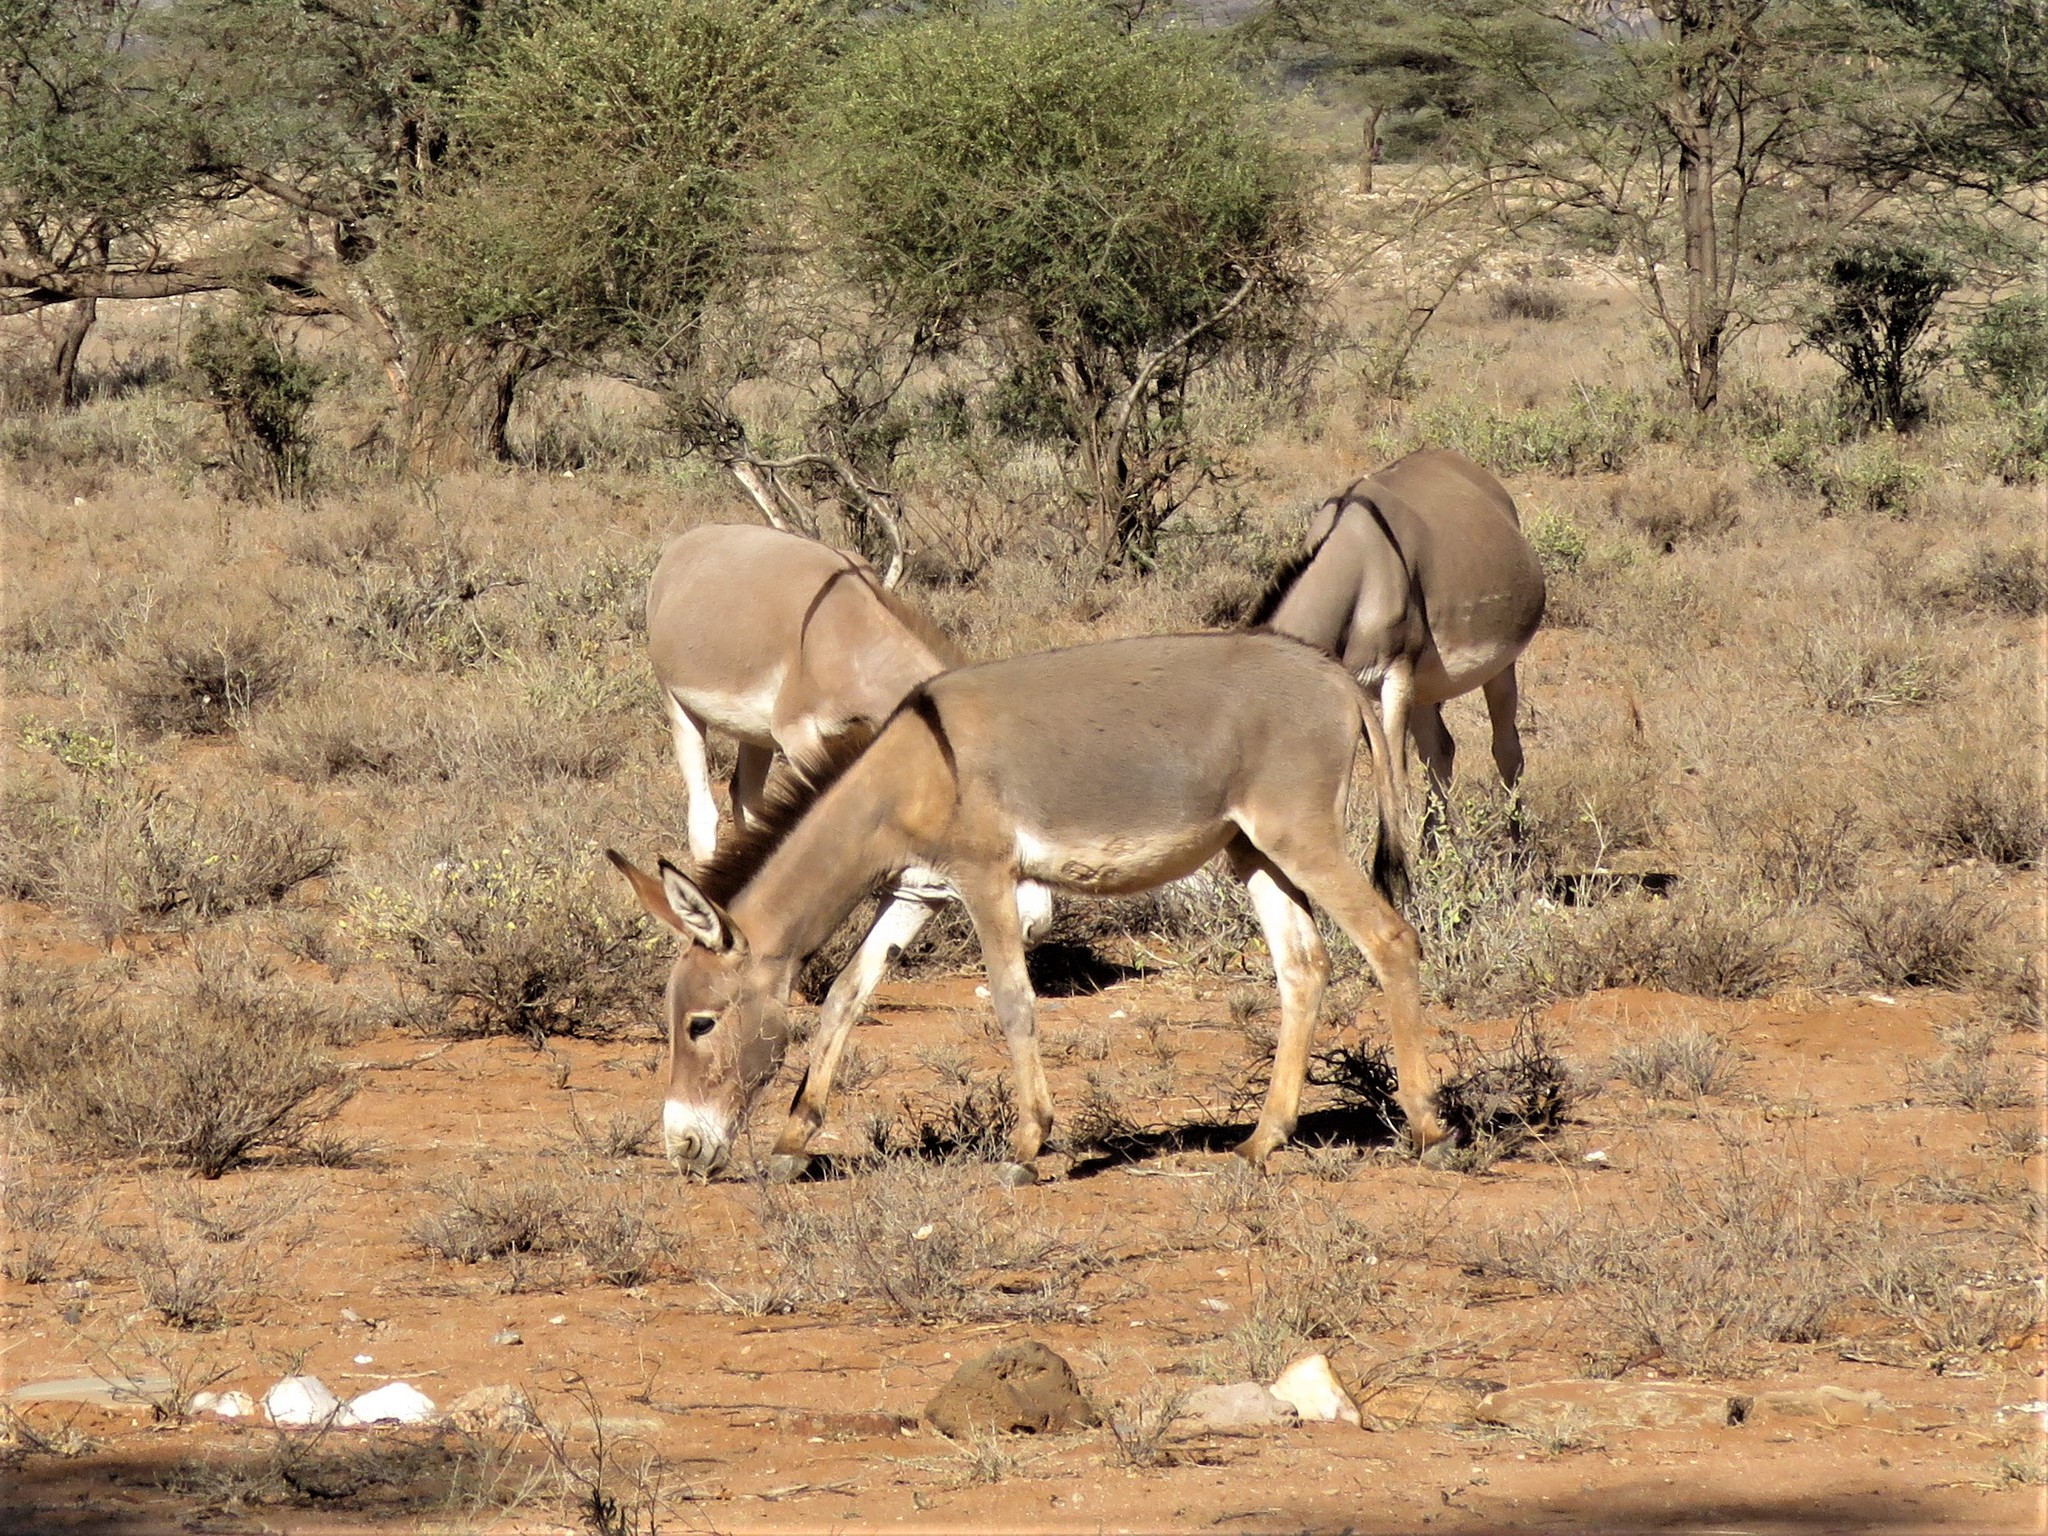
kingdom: Animalia
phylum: Chordata
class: Mammalia
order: Perissodactyla
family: Equidae
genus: Equus
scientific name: Equus asinus
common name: Ass
